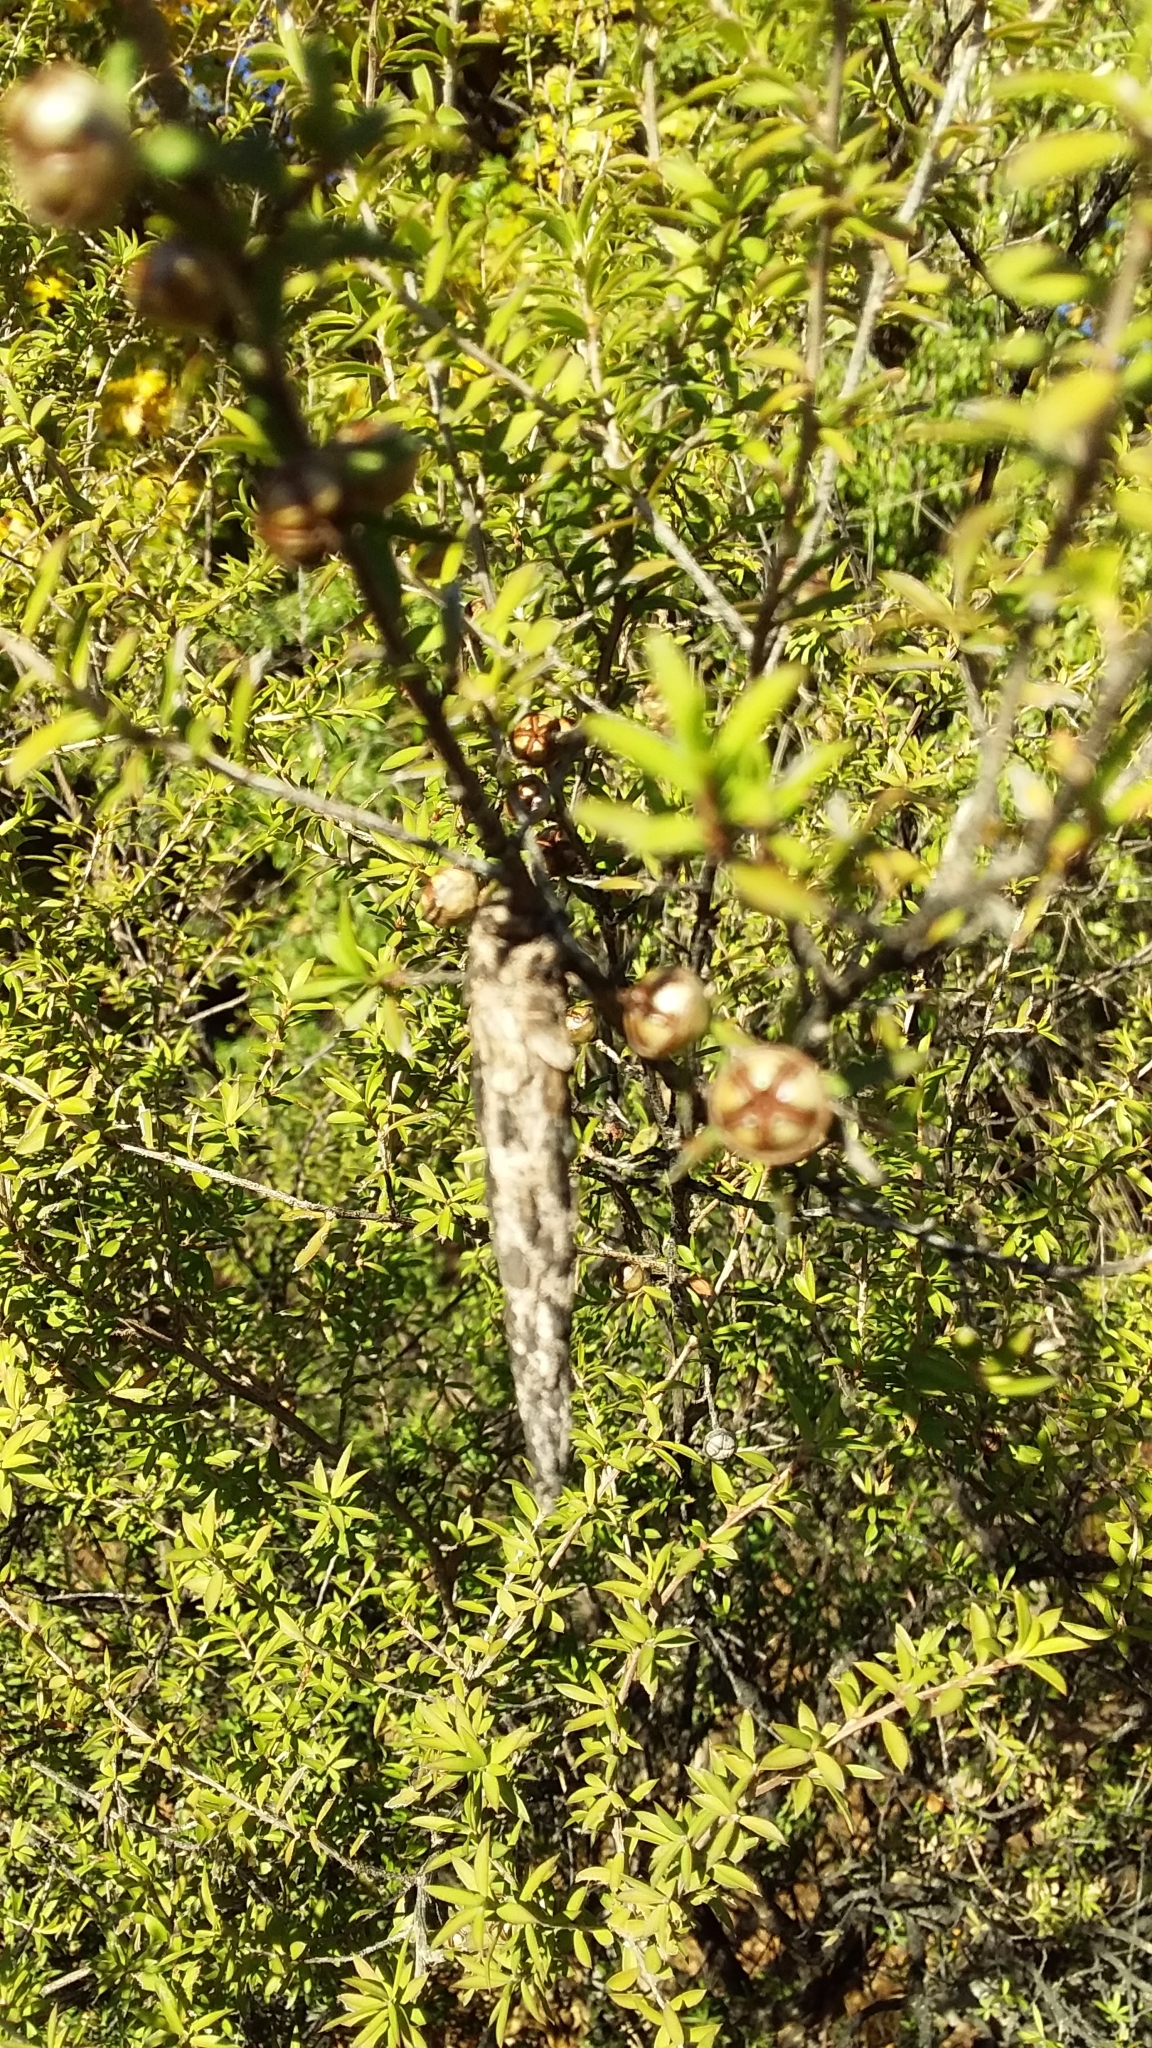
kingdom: Animalia
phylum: Arthropoda
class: Insecta
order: Lepidoptera
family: Psychidae
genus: Liothula
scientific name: Liothula omnivora
